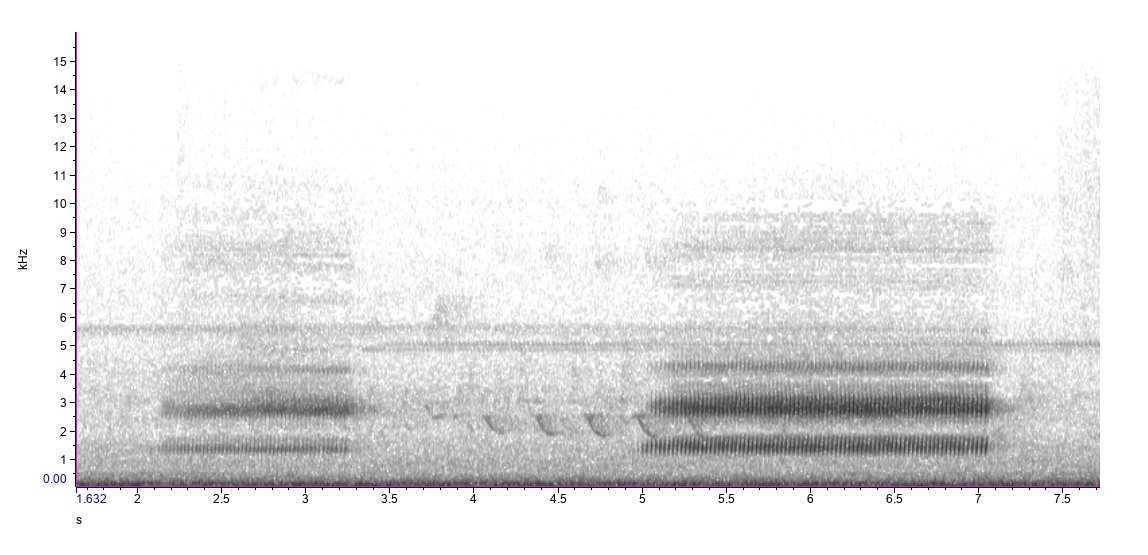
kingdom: Animalia
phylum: Chordata
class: Amphibia
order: Anura
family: Hylidae
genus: Dryophytes
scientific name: Dryophytes chrysoscelis
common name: Cope's gray treefrog
